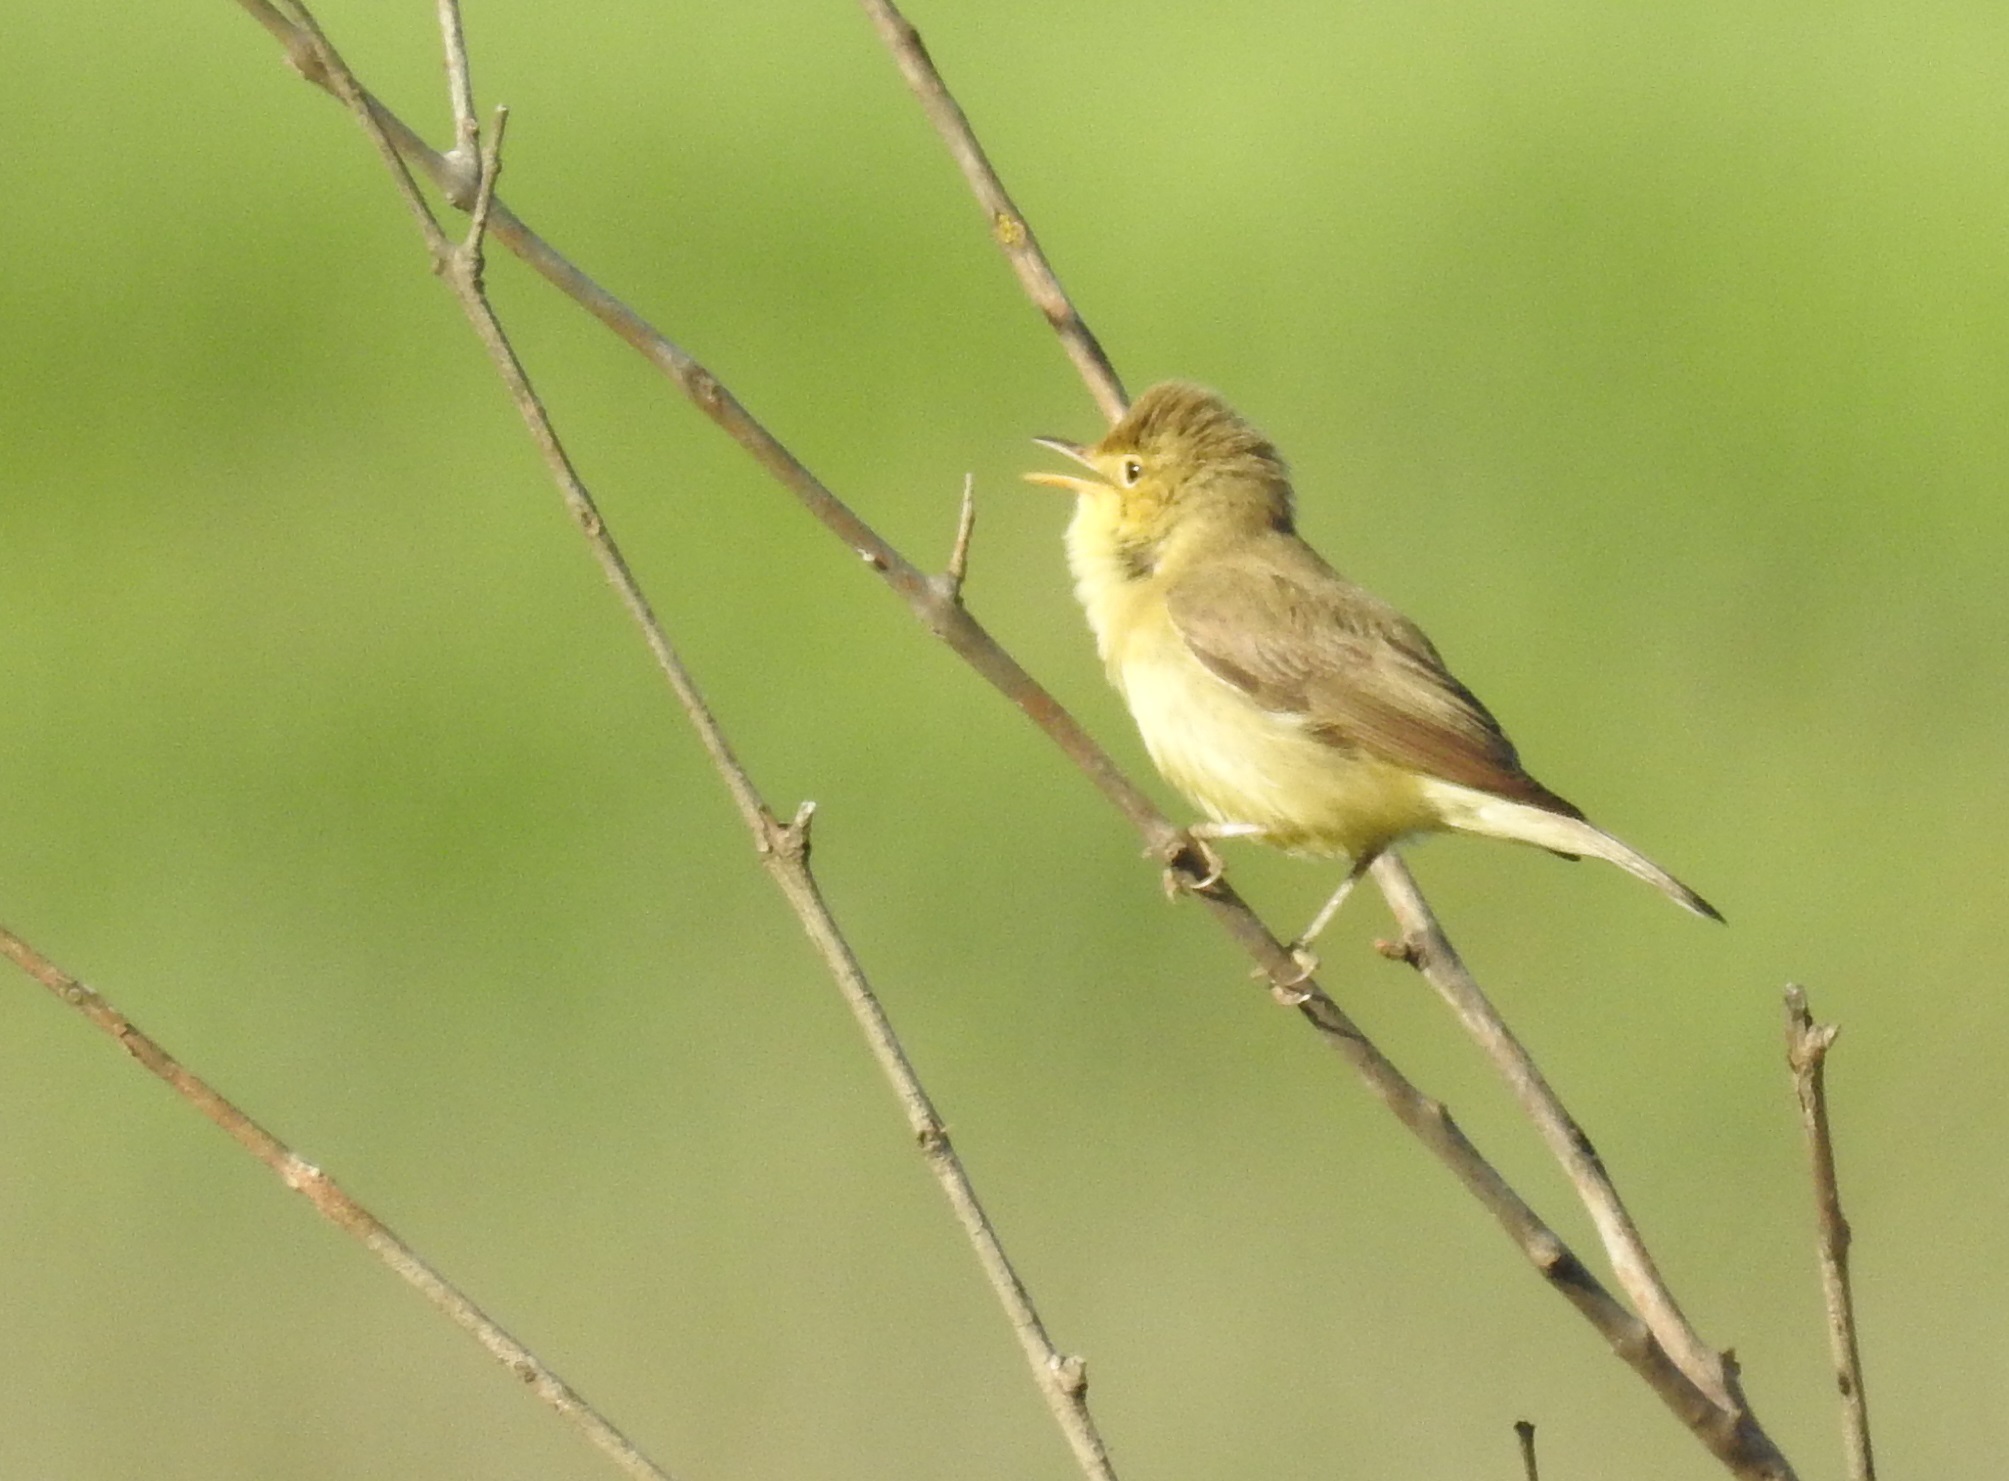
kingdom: Animalia
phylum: Chordata
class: Aves
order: Passeriformes
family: Acrocephalidae
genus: Hippolais
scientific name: Hippolais polyglotta
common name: Melodious warbler
